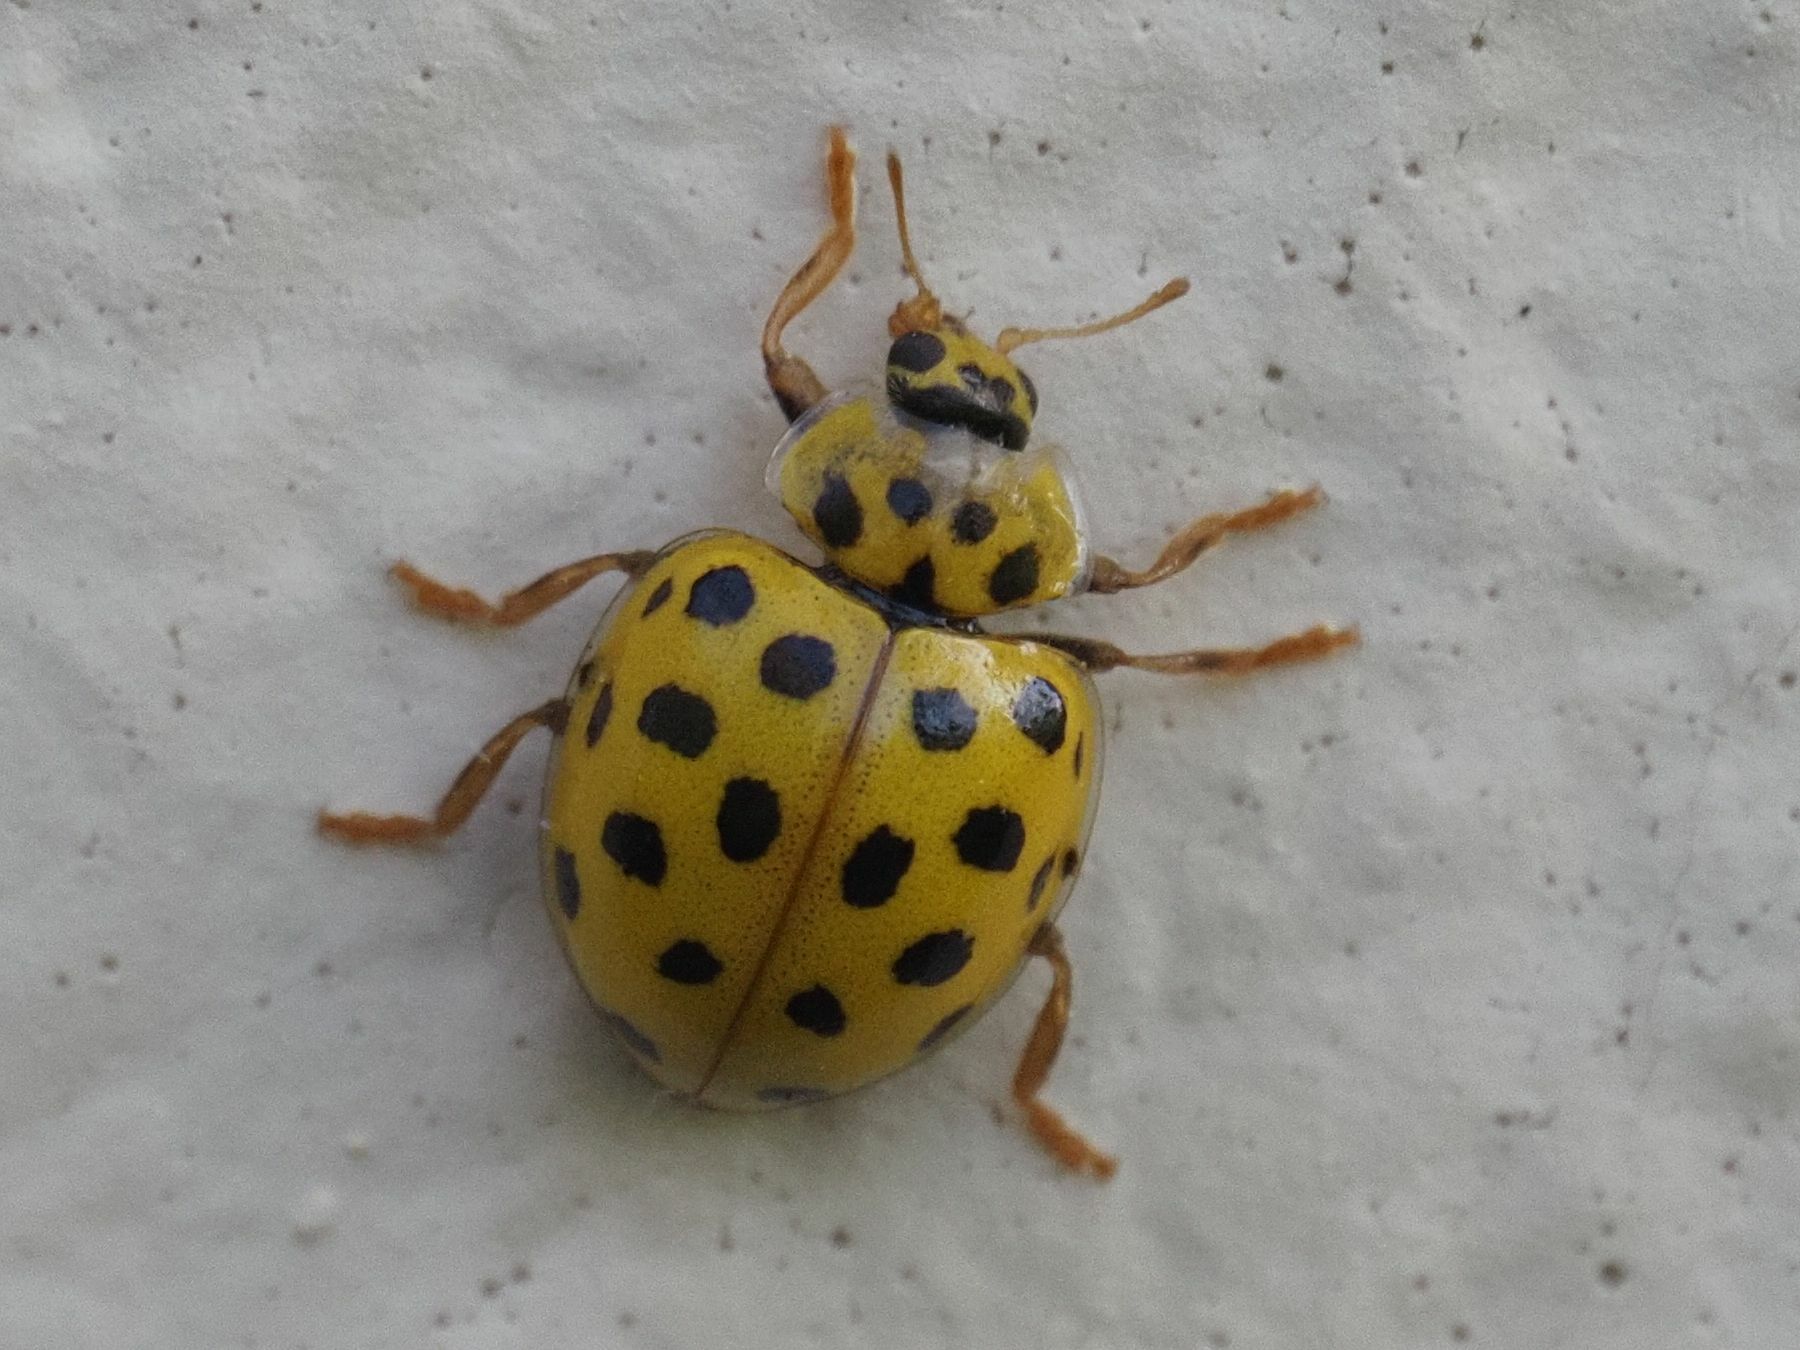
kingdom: Animalia
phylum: Arthropoda
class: Insecta
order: Coleoptera
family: Coccinellidae
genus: Psyllobora
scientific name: Psyllobora vigintiduopunctata
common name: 22-spot ladybird
